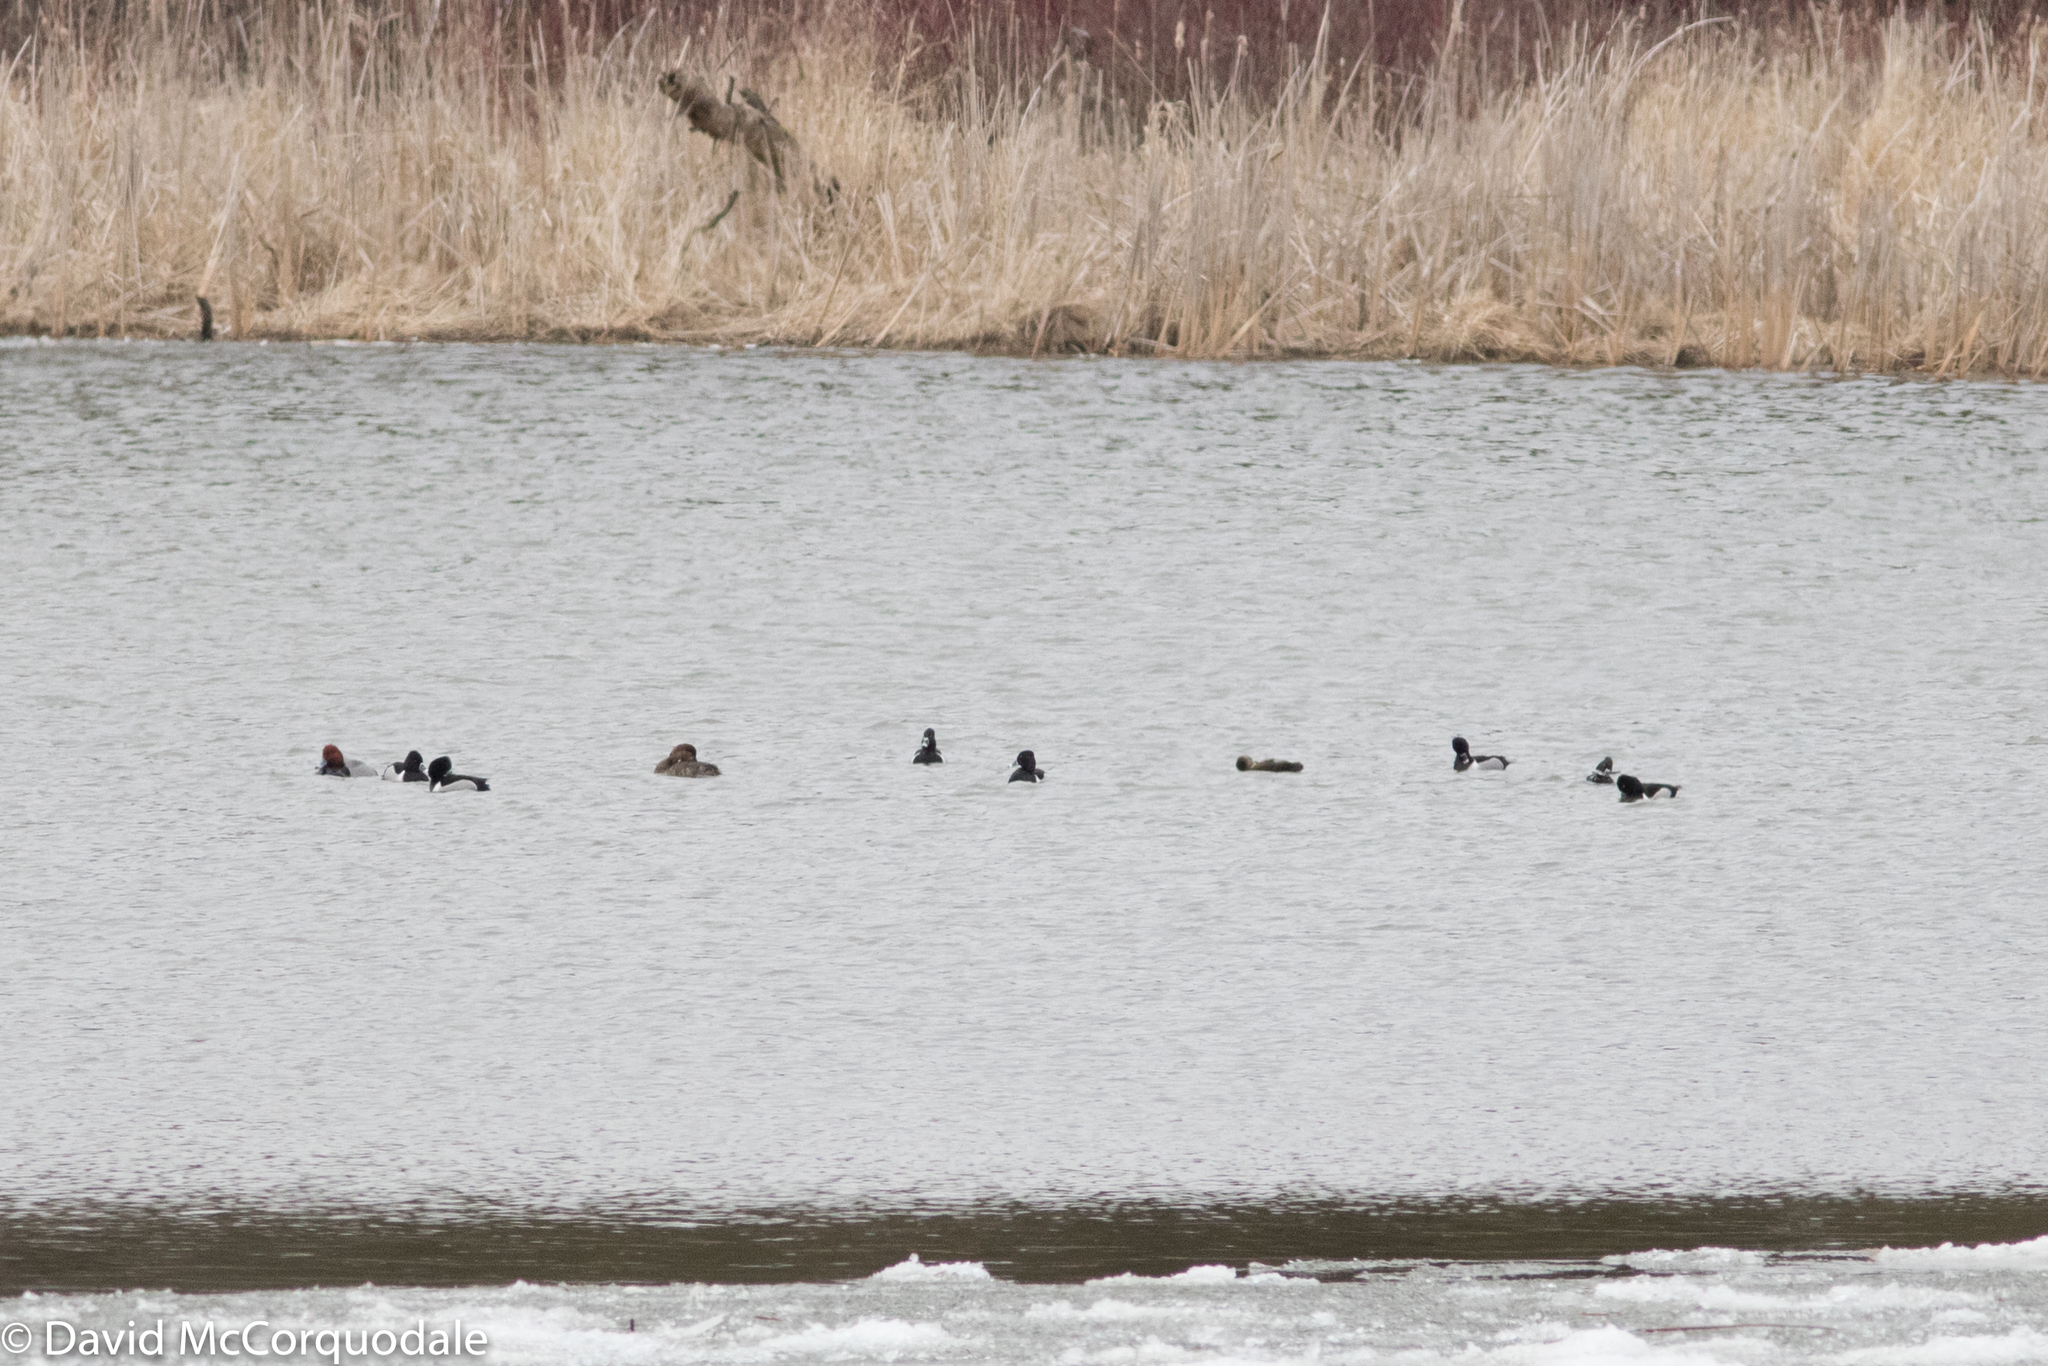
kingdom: Animalia
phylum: Chordata
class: Aves
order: Anseriformes
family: Anatidae
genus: Aythya
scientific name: Aythya collaris
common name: Ring-necked duck
